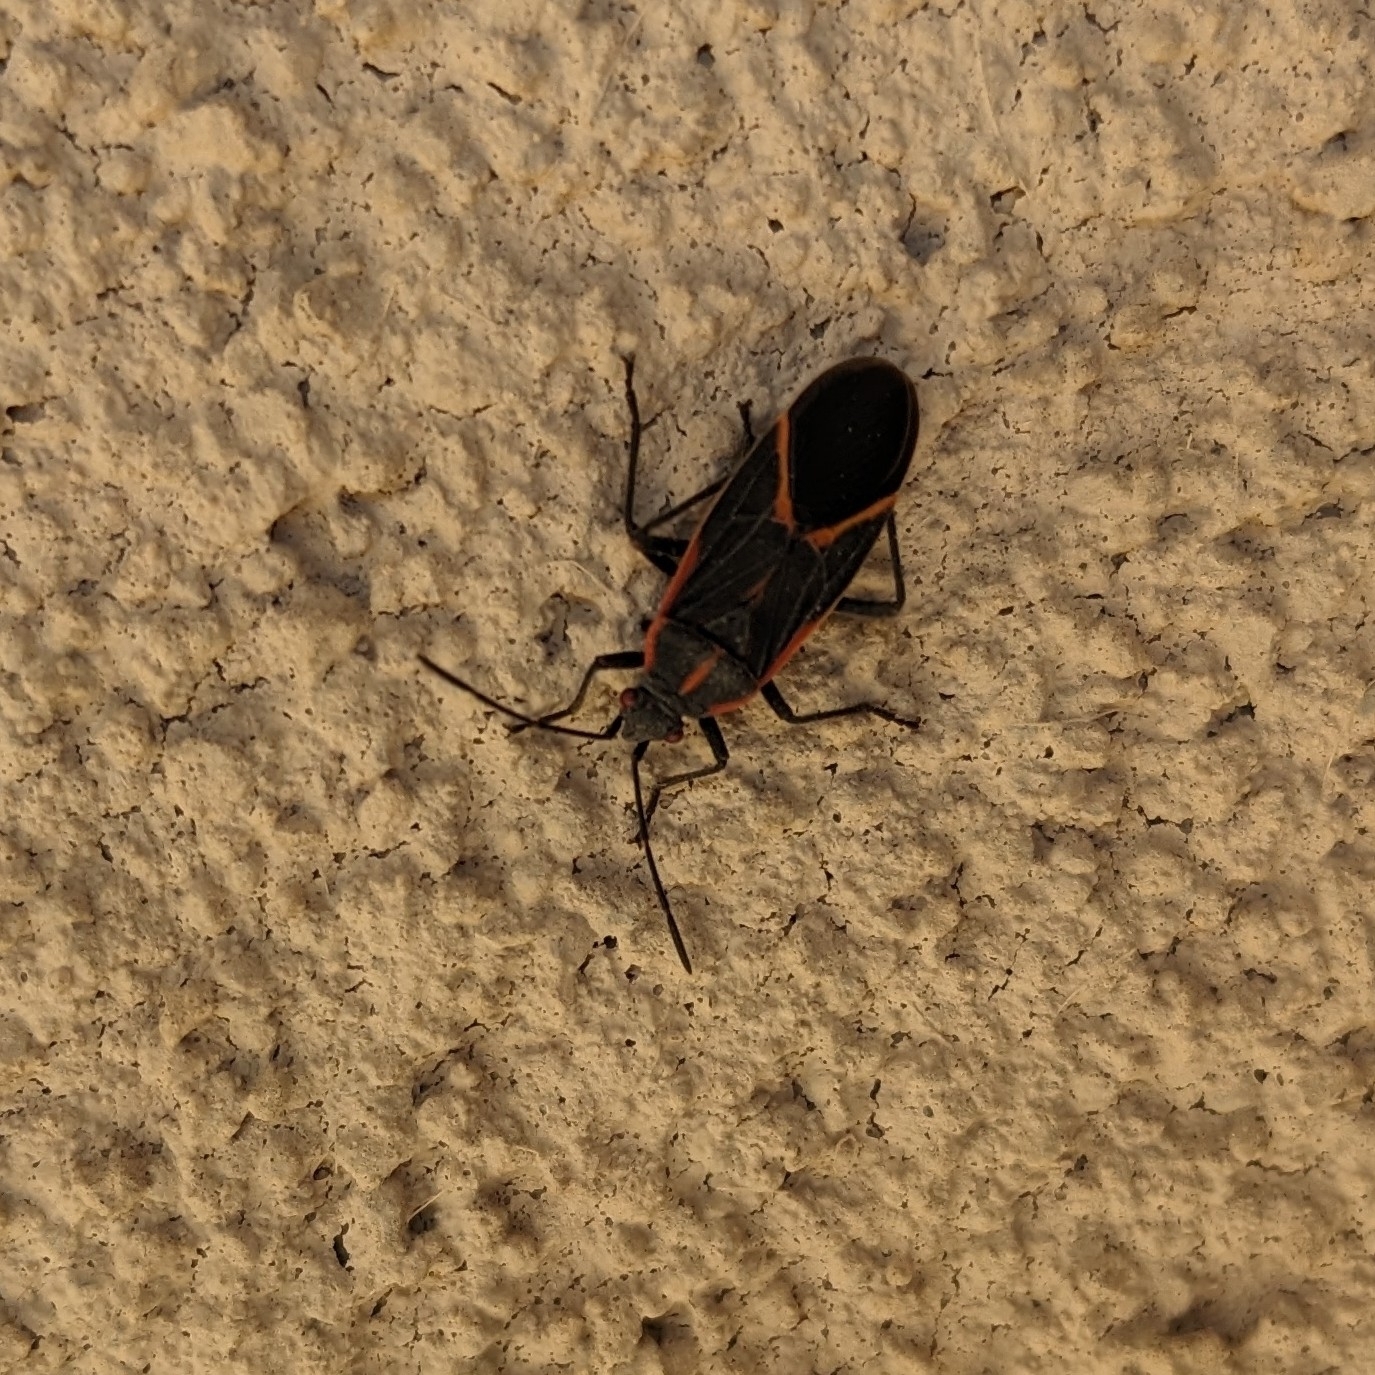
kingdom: Animalia
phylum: Arthropoda
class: Insecta
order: Hemiptera
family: Rhopalidae
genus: Boisea
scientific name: Boisea trivittata
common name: Boxelder bug
